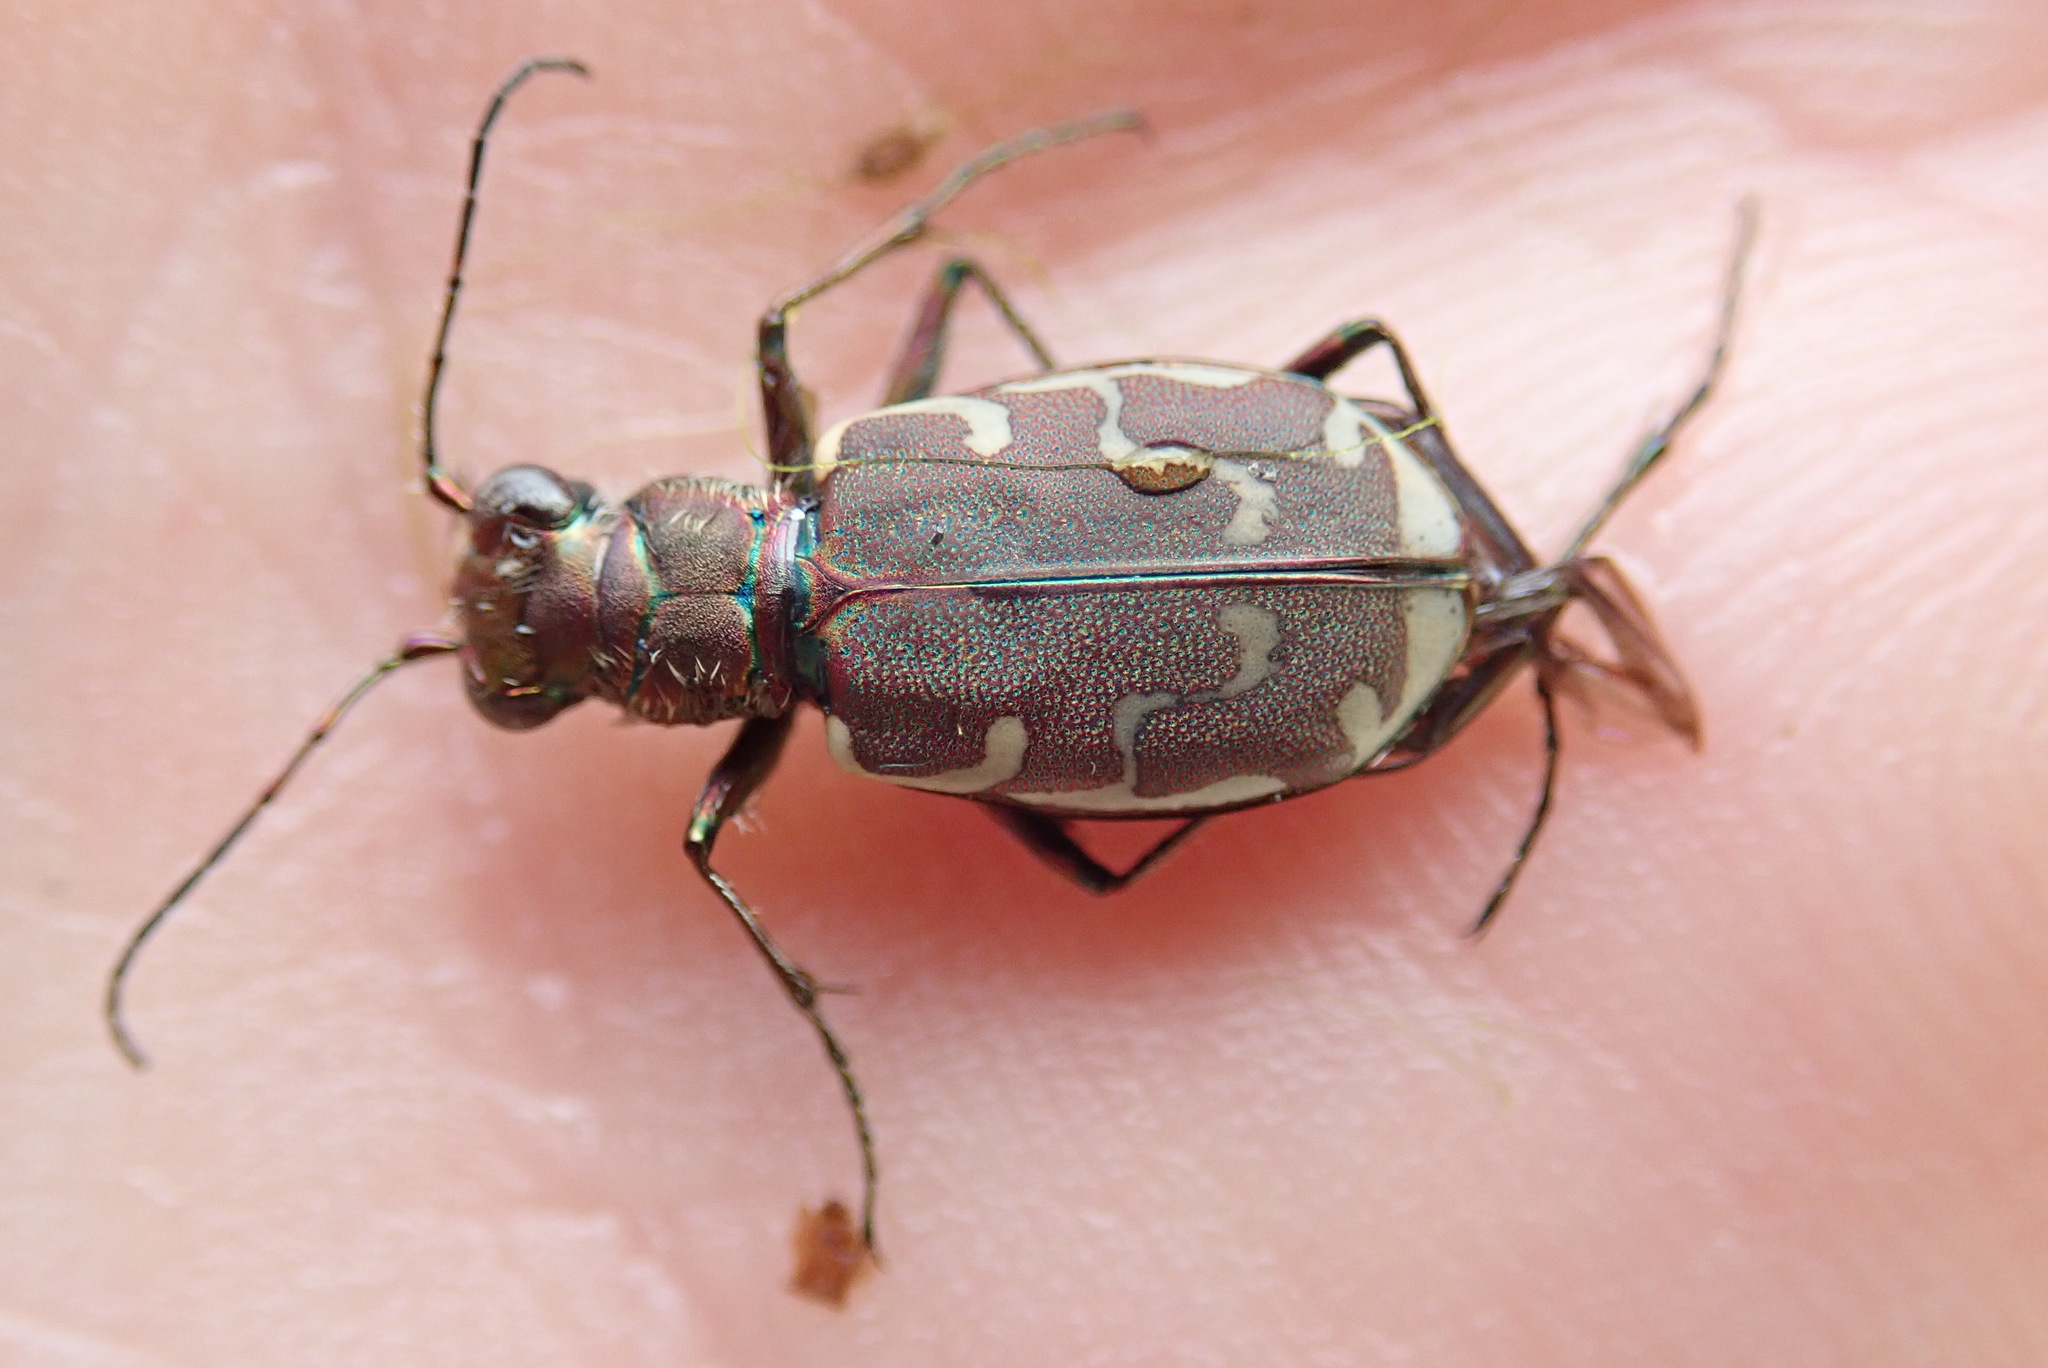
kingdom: Animalia
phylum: Arthropoda
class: Insecta
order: Coleoptera
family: Carabidae
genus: Cicindela
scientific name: Cicindela repanda
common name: Bronzed tiger beetle
